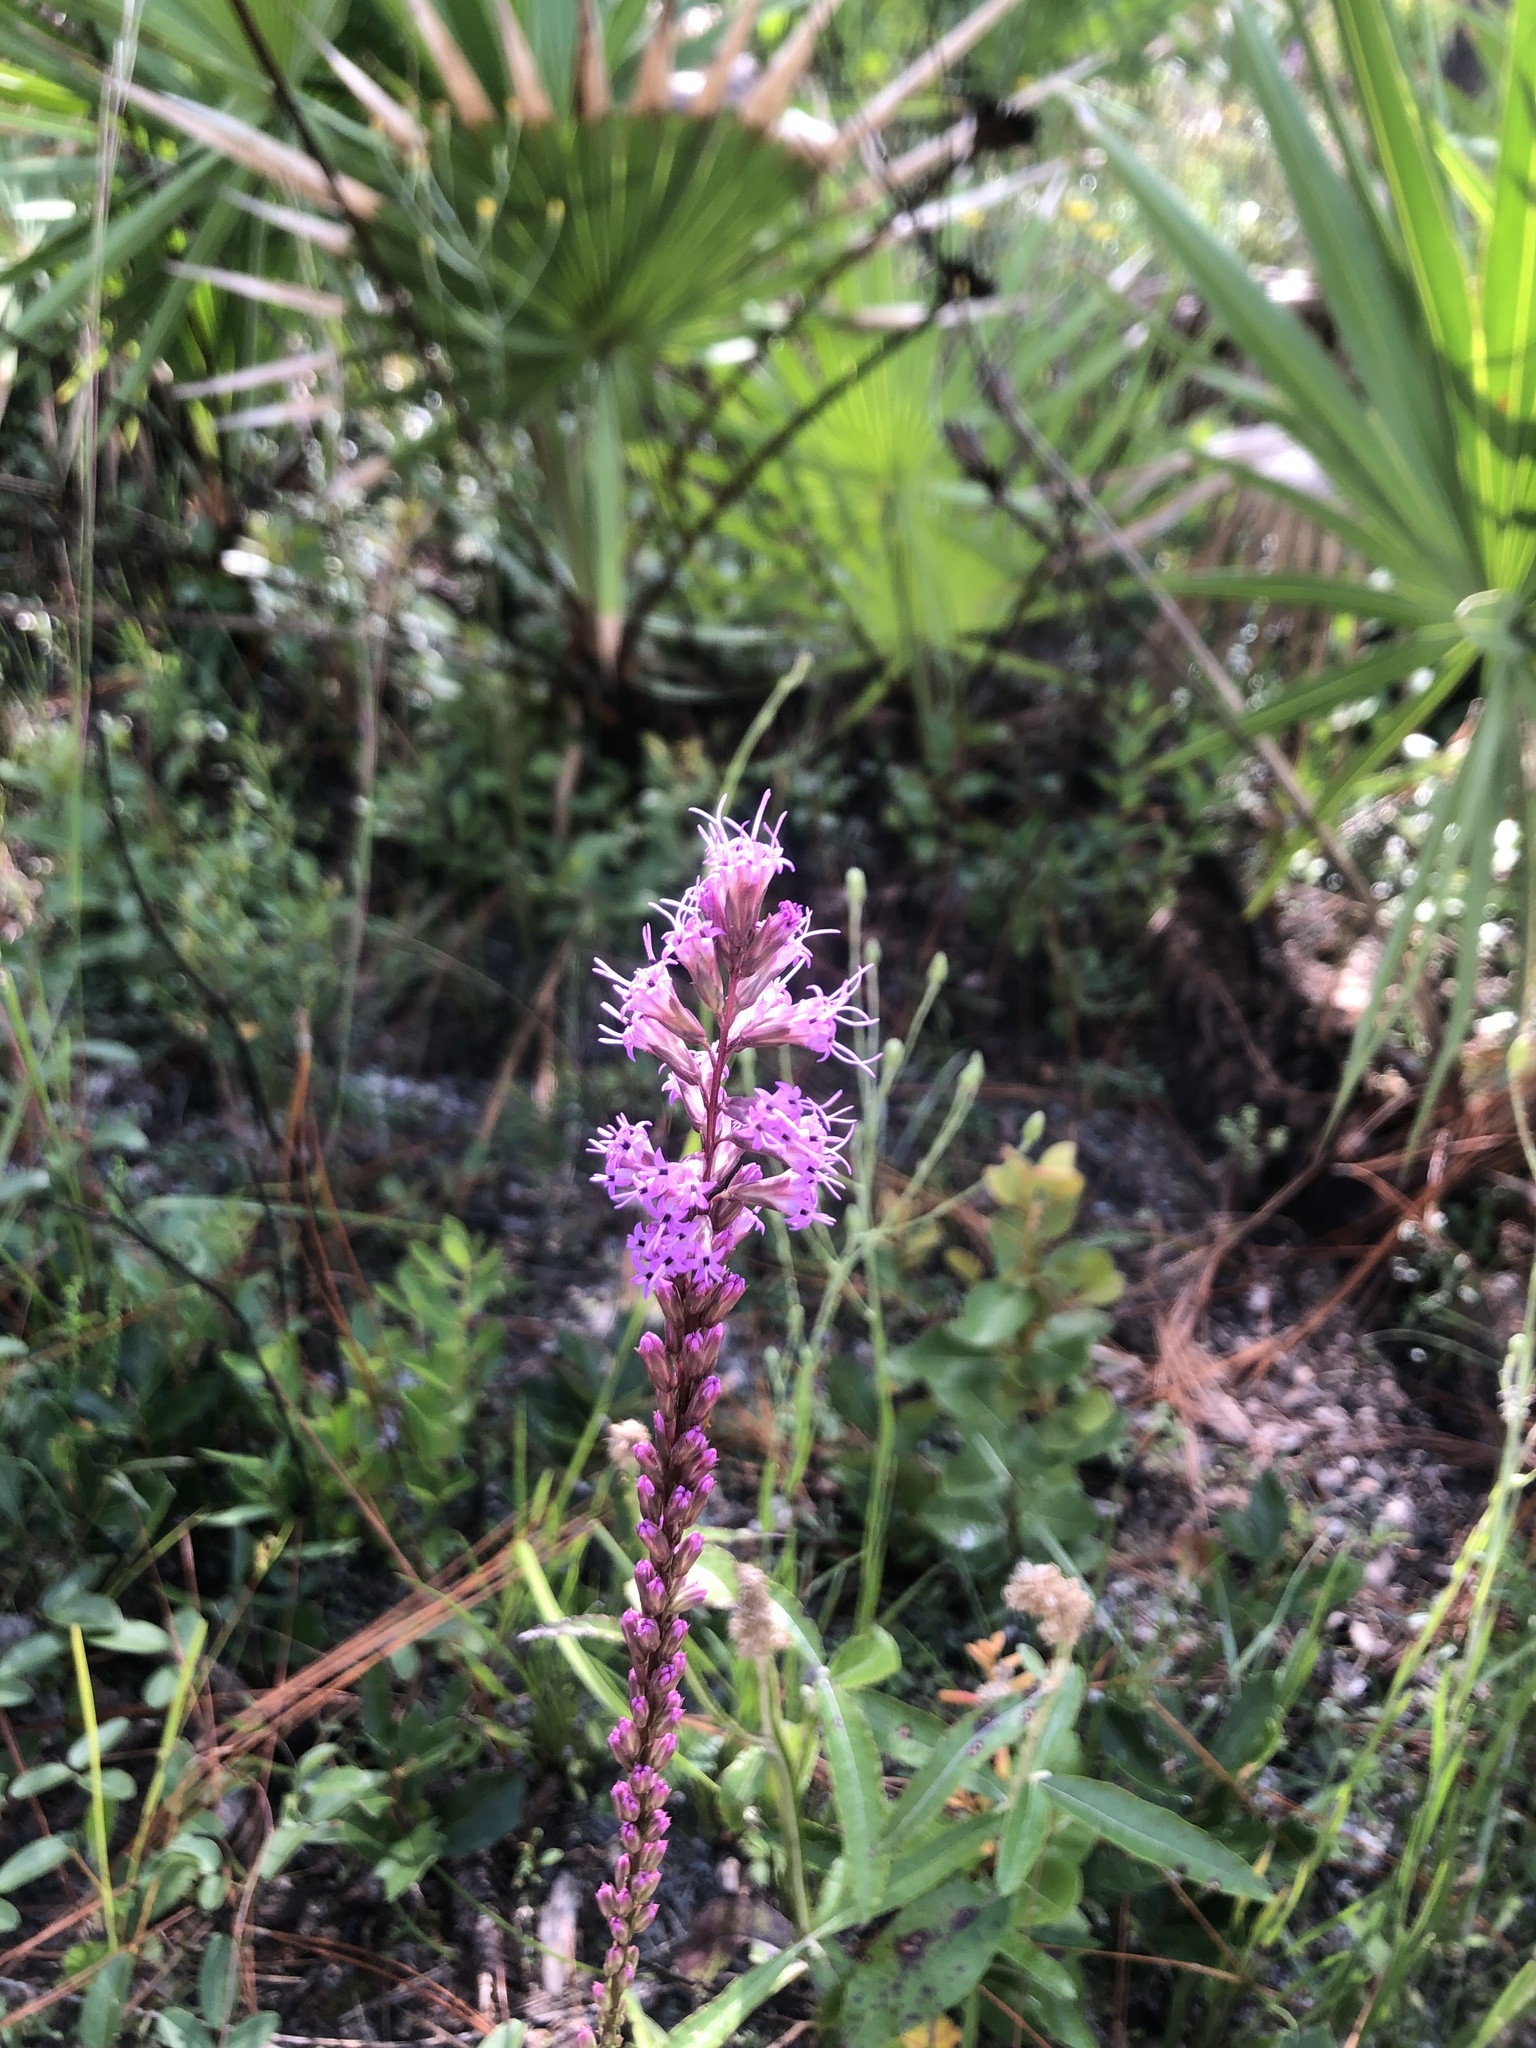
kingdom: Plantae
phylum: Tracheophyta
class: Magnoliopsida
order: Asterales
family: Asteraceae
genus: Liatris
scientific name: Liatris quadriflora
